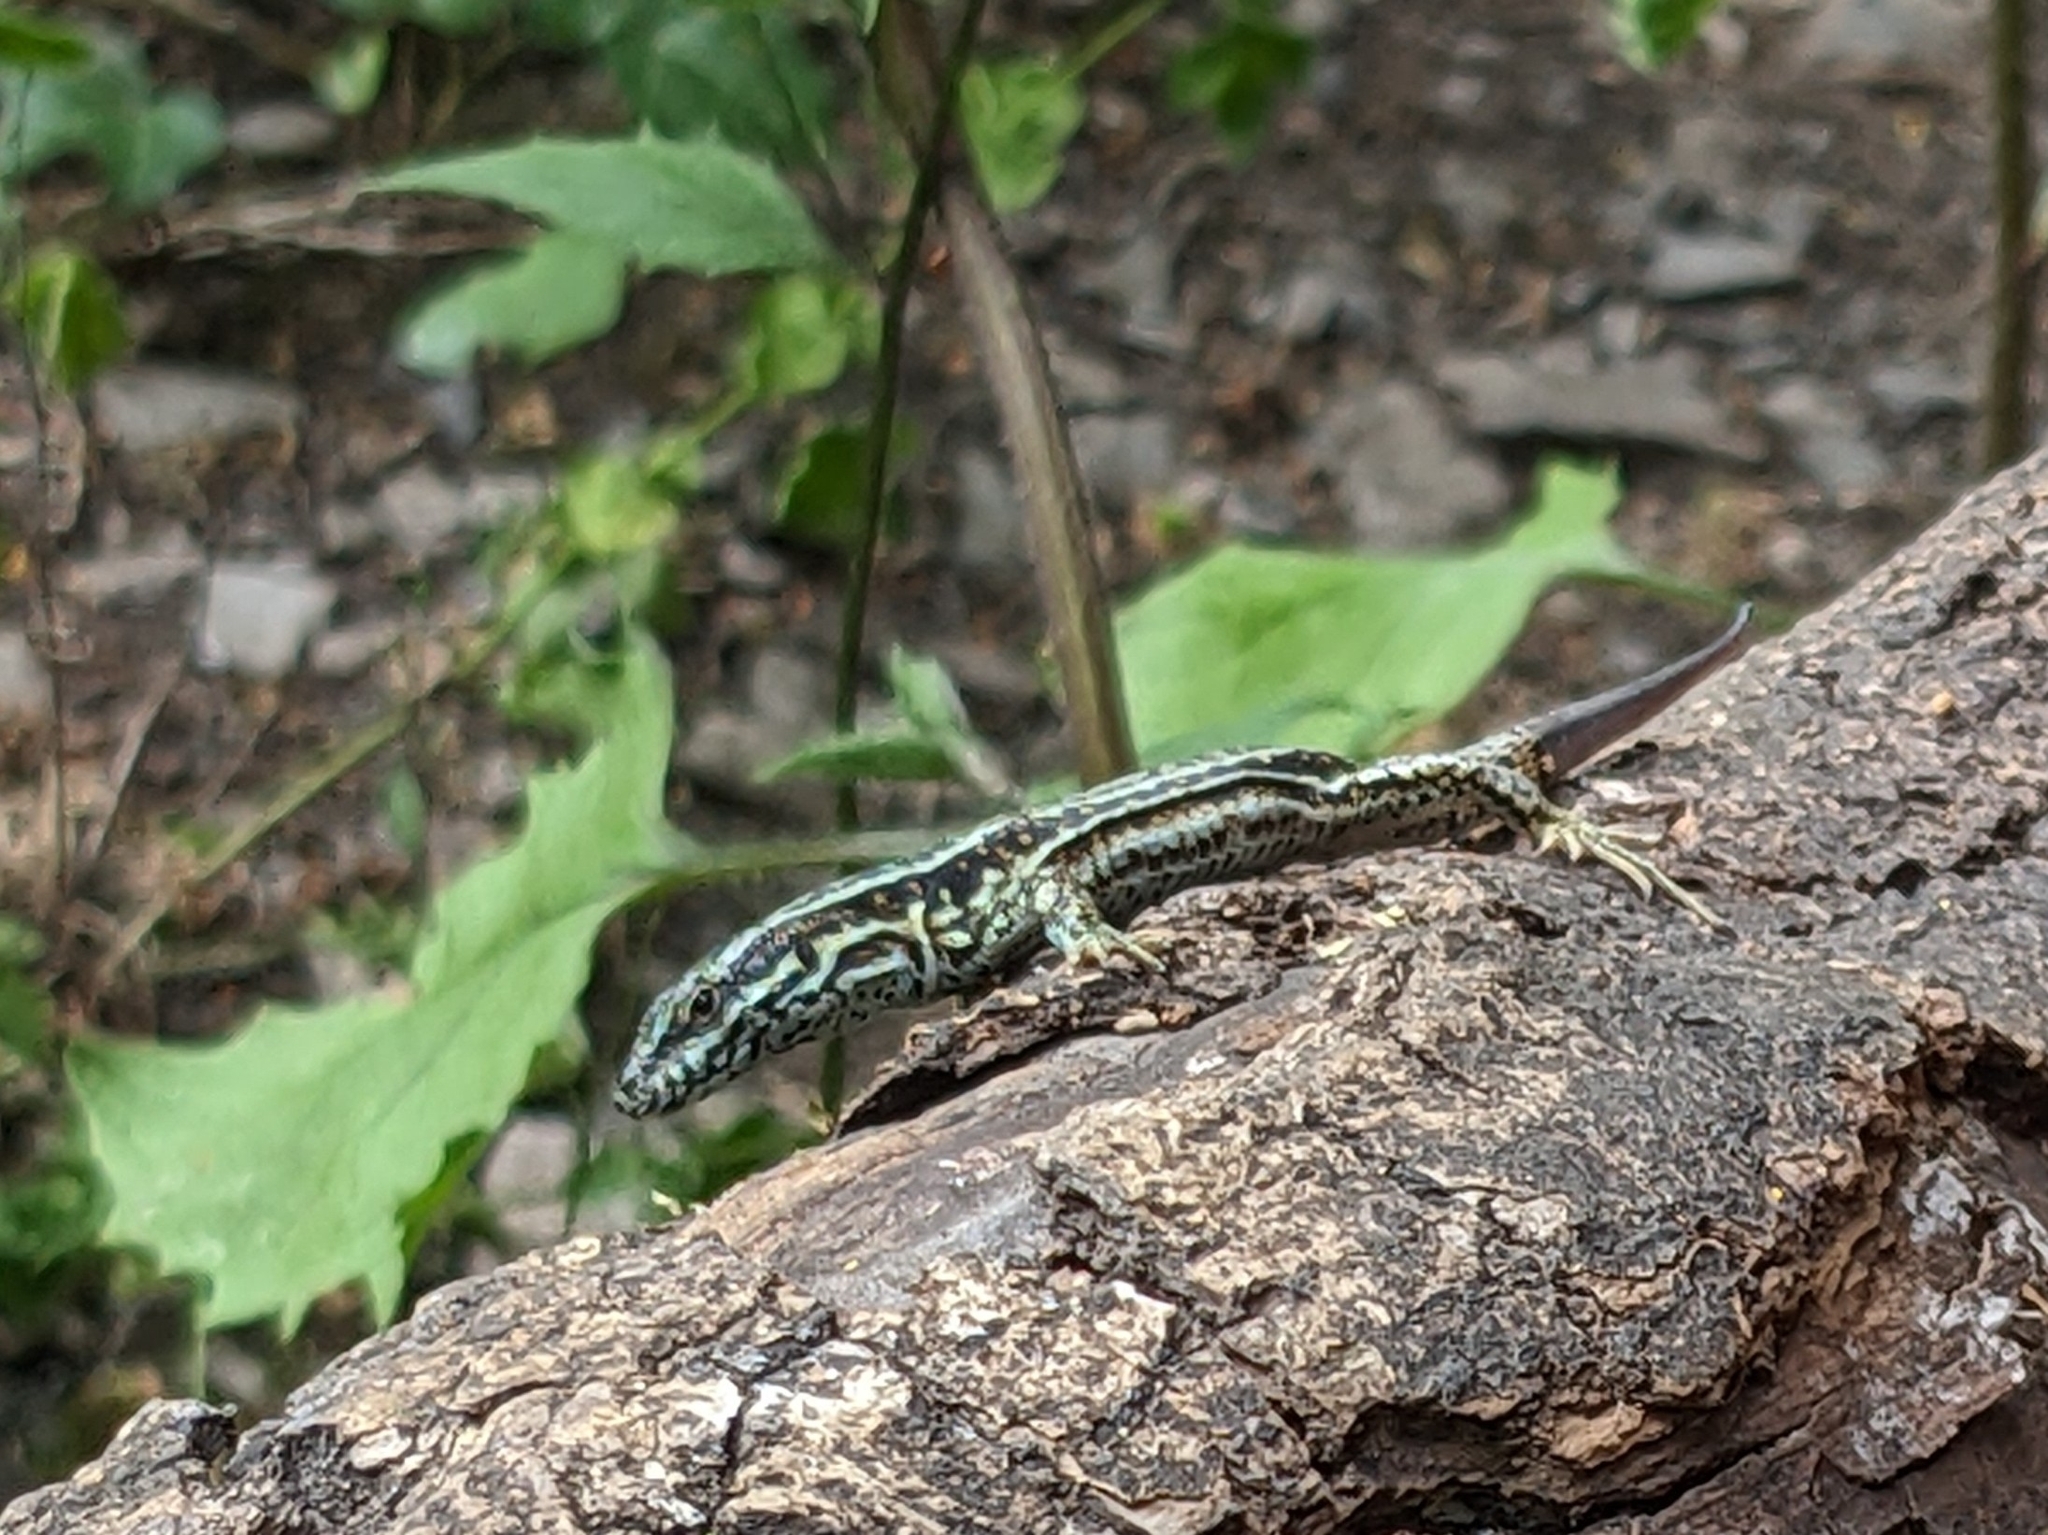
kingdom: Animalia
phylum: Chordata
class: Squamata
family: Lacertidae
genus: Podarcis
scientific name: Podarcis muralis
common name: Common wall lizard
